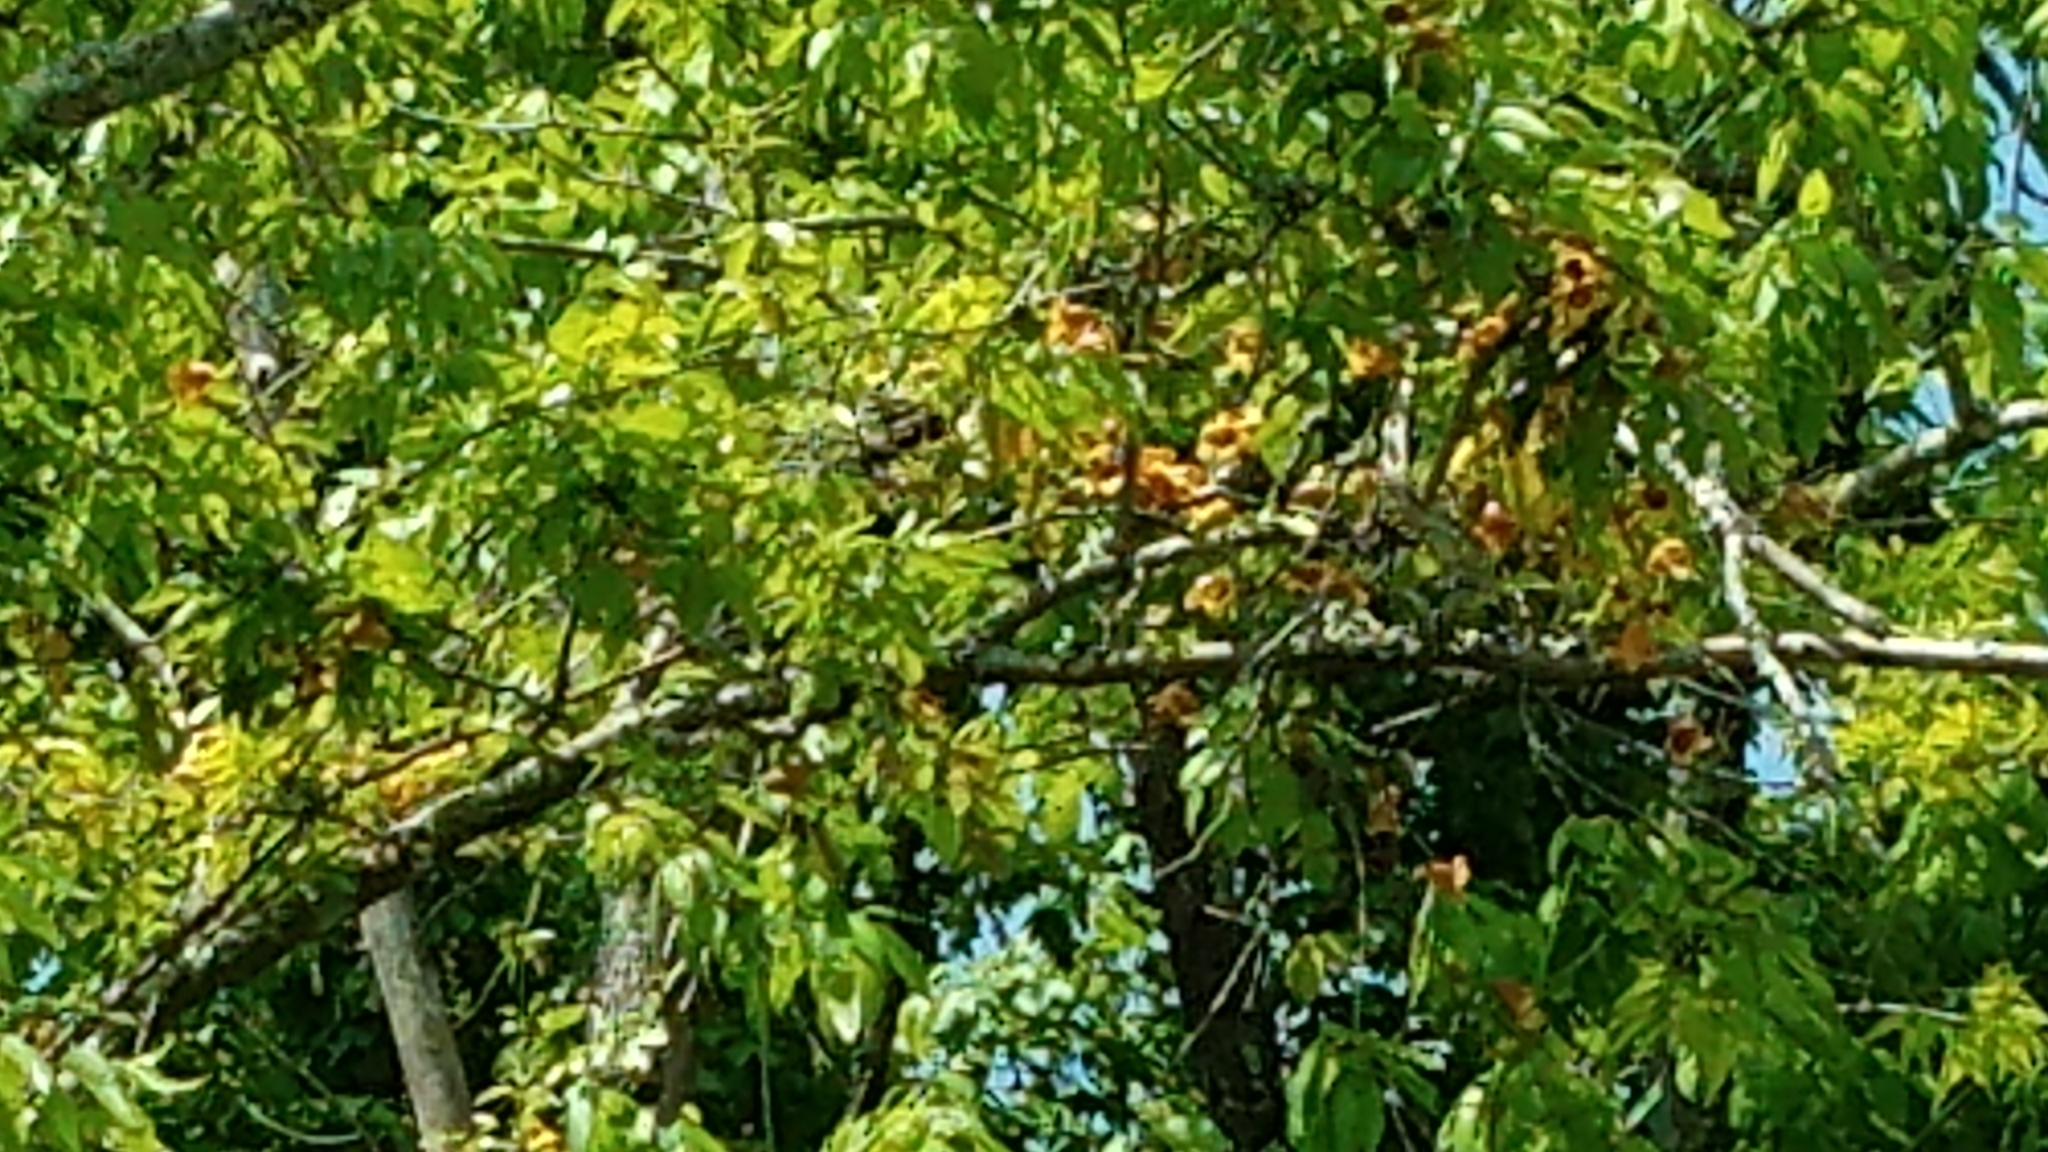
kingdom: Plantae
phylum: Tracheophyta
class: Magnoliopsida
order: Lamiales
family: Bignoniaceae
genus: Bignonia
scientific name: Bignonia capreolata
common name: Crossvine
